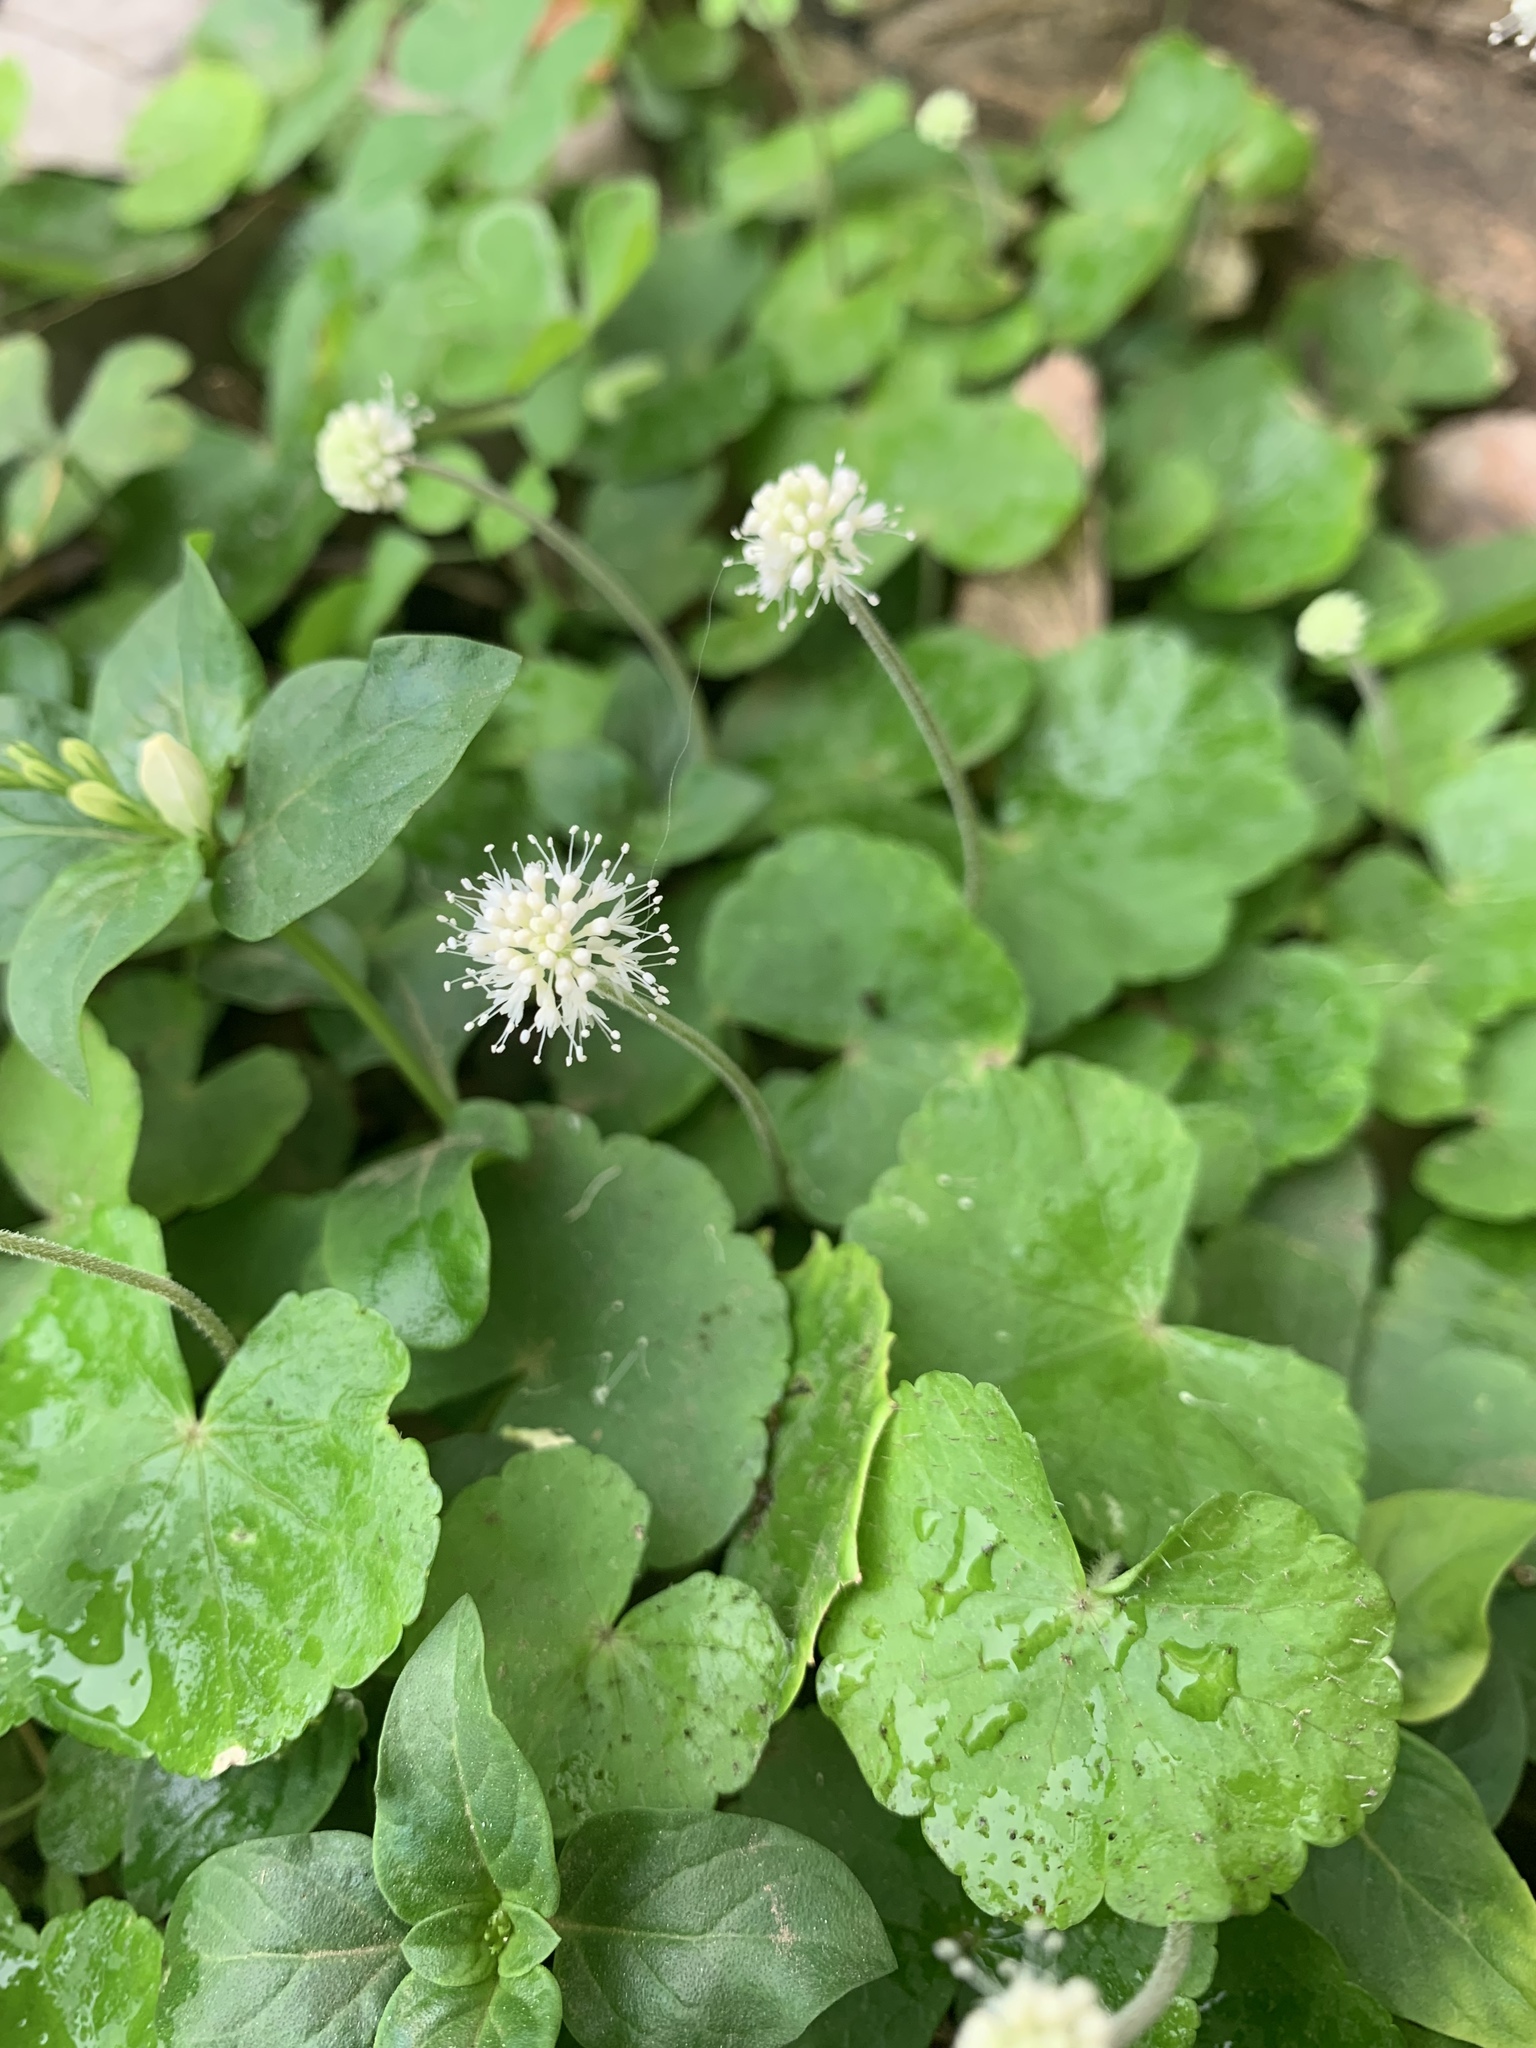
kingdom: Plantae
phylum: Tracheophyta
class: Magnoliopsida
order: Apiales
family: Araliaceae
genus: Hydrocotyle
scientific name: Hydrocotyle leucocephala
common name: Brazilian pennywort
